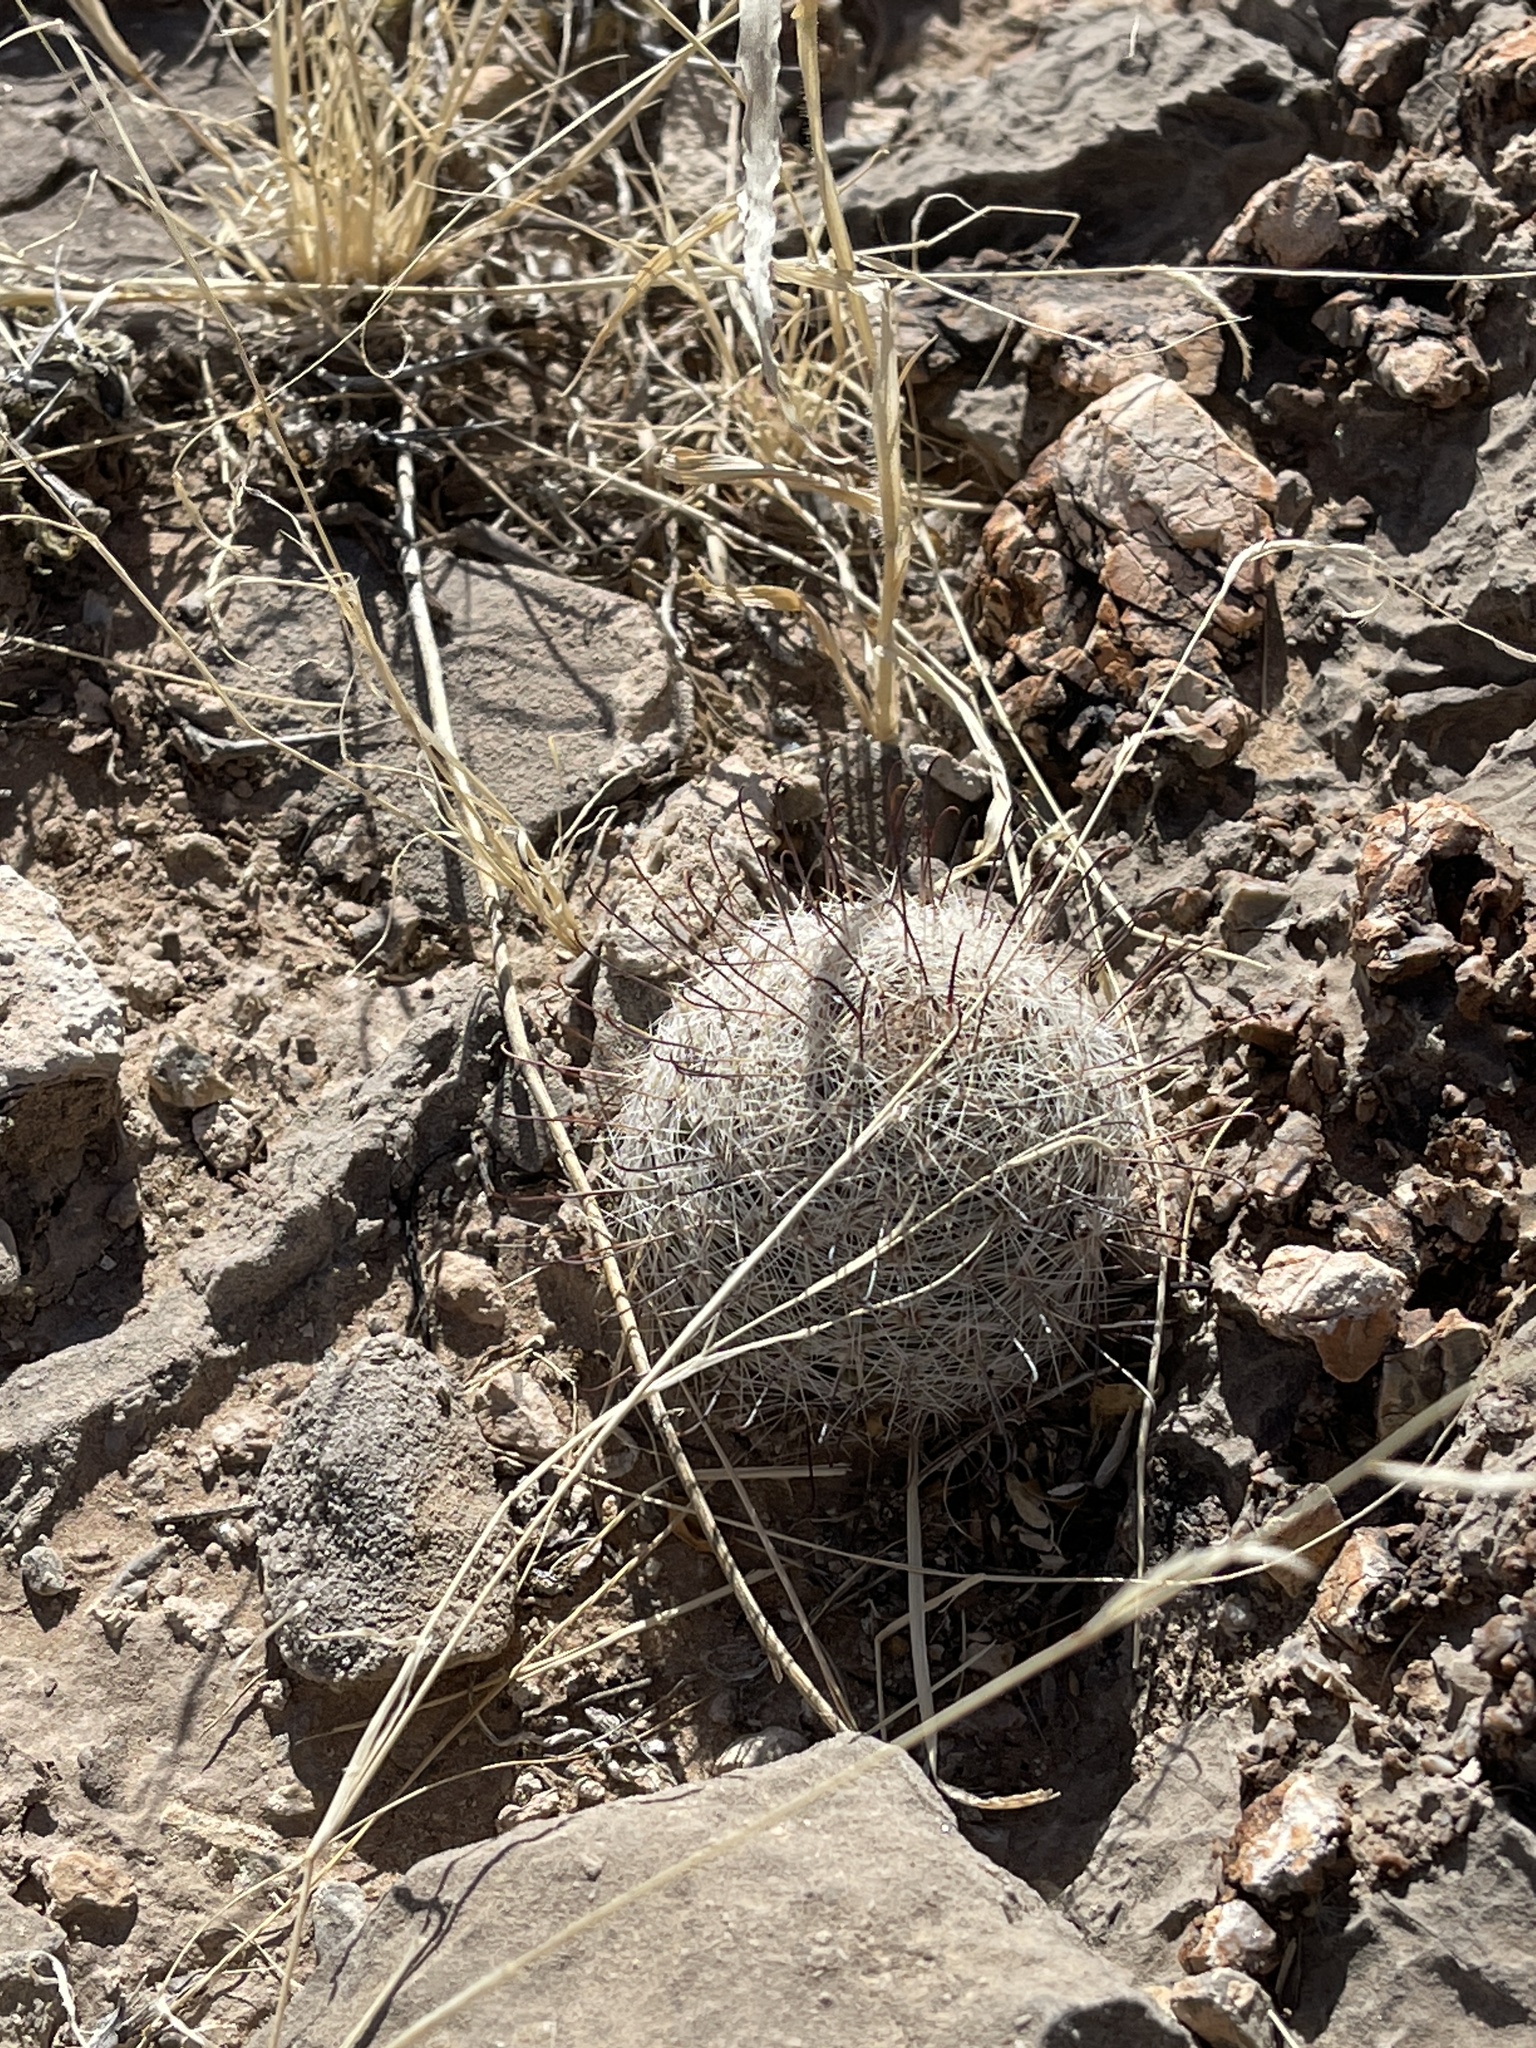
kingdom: Plantae
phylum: Tracheophyta
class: Magnoliopsida
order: Caryophyllales
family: Cactaceae
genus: Cochemiea
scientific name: Cochemiea grahamii
